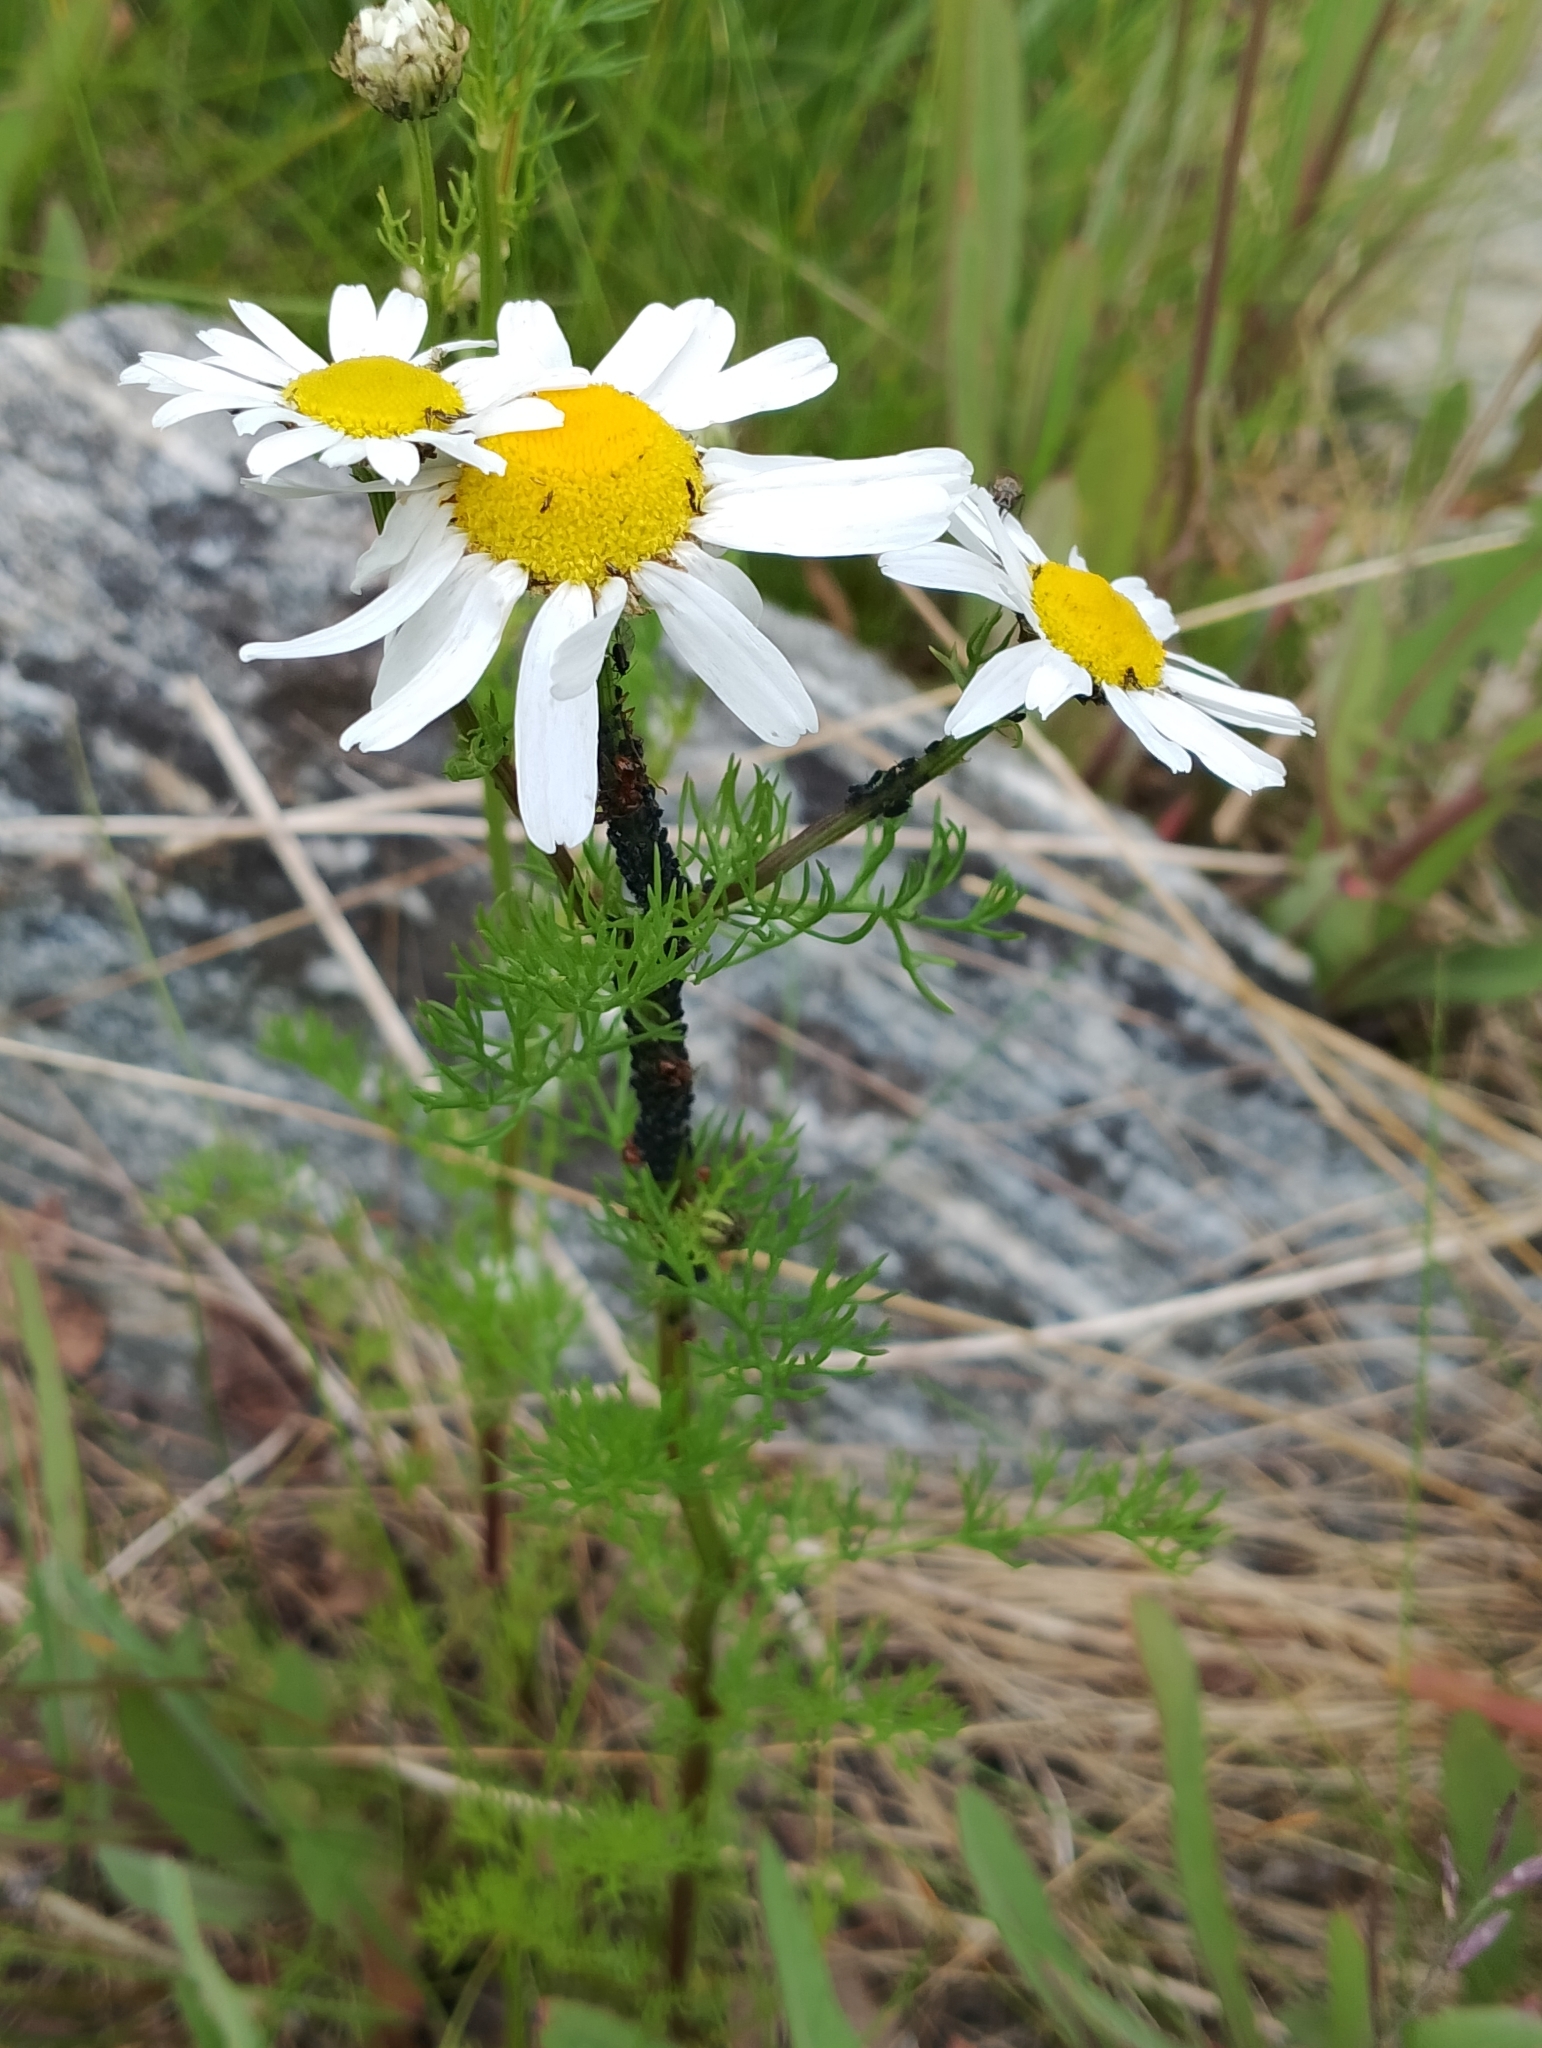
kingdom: Plantae
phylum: Tracheophyta
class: Magnoliopsida
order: Asterales
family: Asteraceae
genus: Tripleurospermum
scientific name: Tripleurospermum maritimum
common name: Sea mayweed
